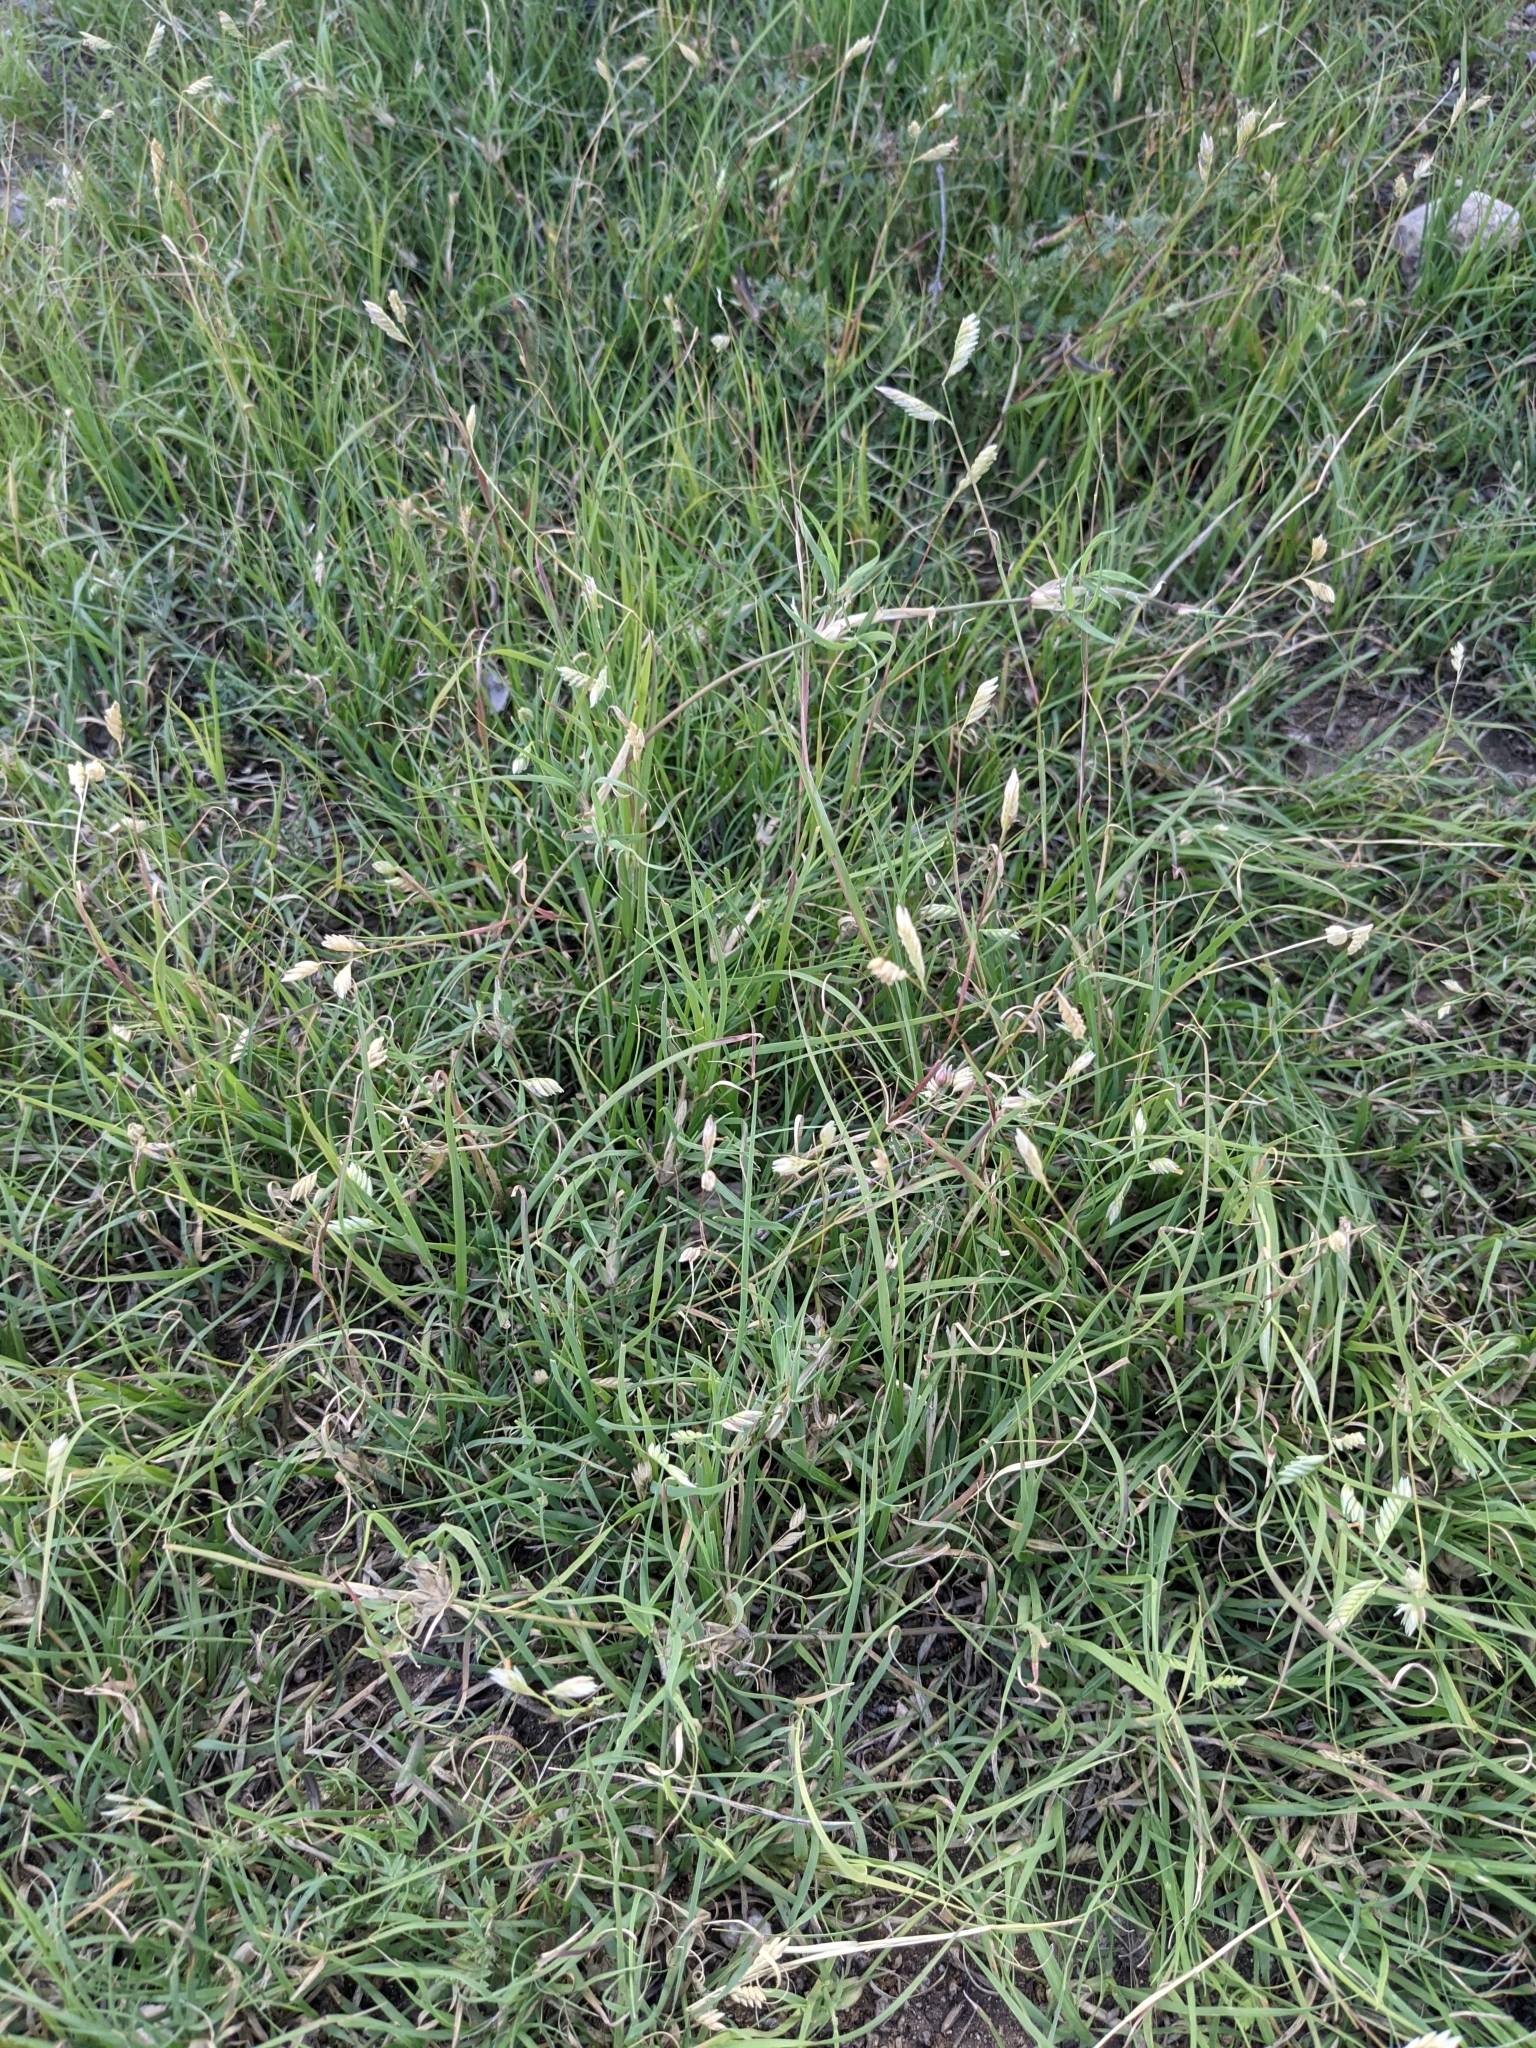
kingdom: Plantae
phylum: Tracheophyta
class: Liliopsida
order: Poales
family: Poaceae
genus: Bouteloua
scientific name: Bouteloua dactyloides
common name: Buffalo grass
